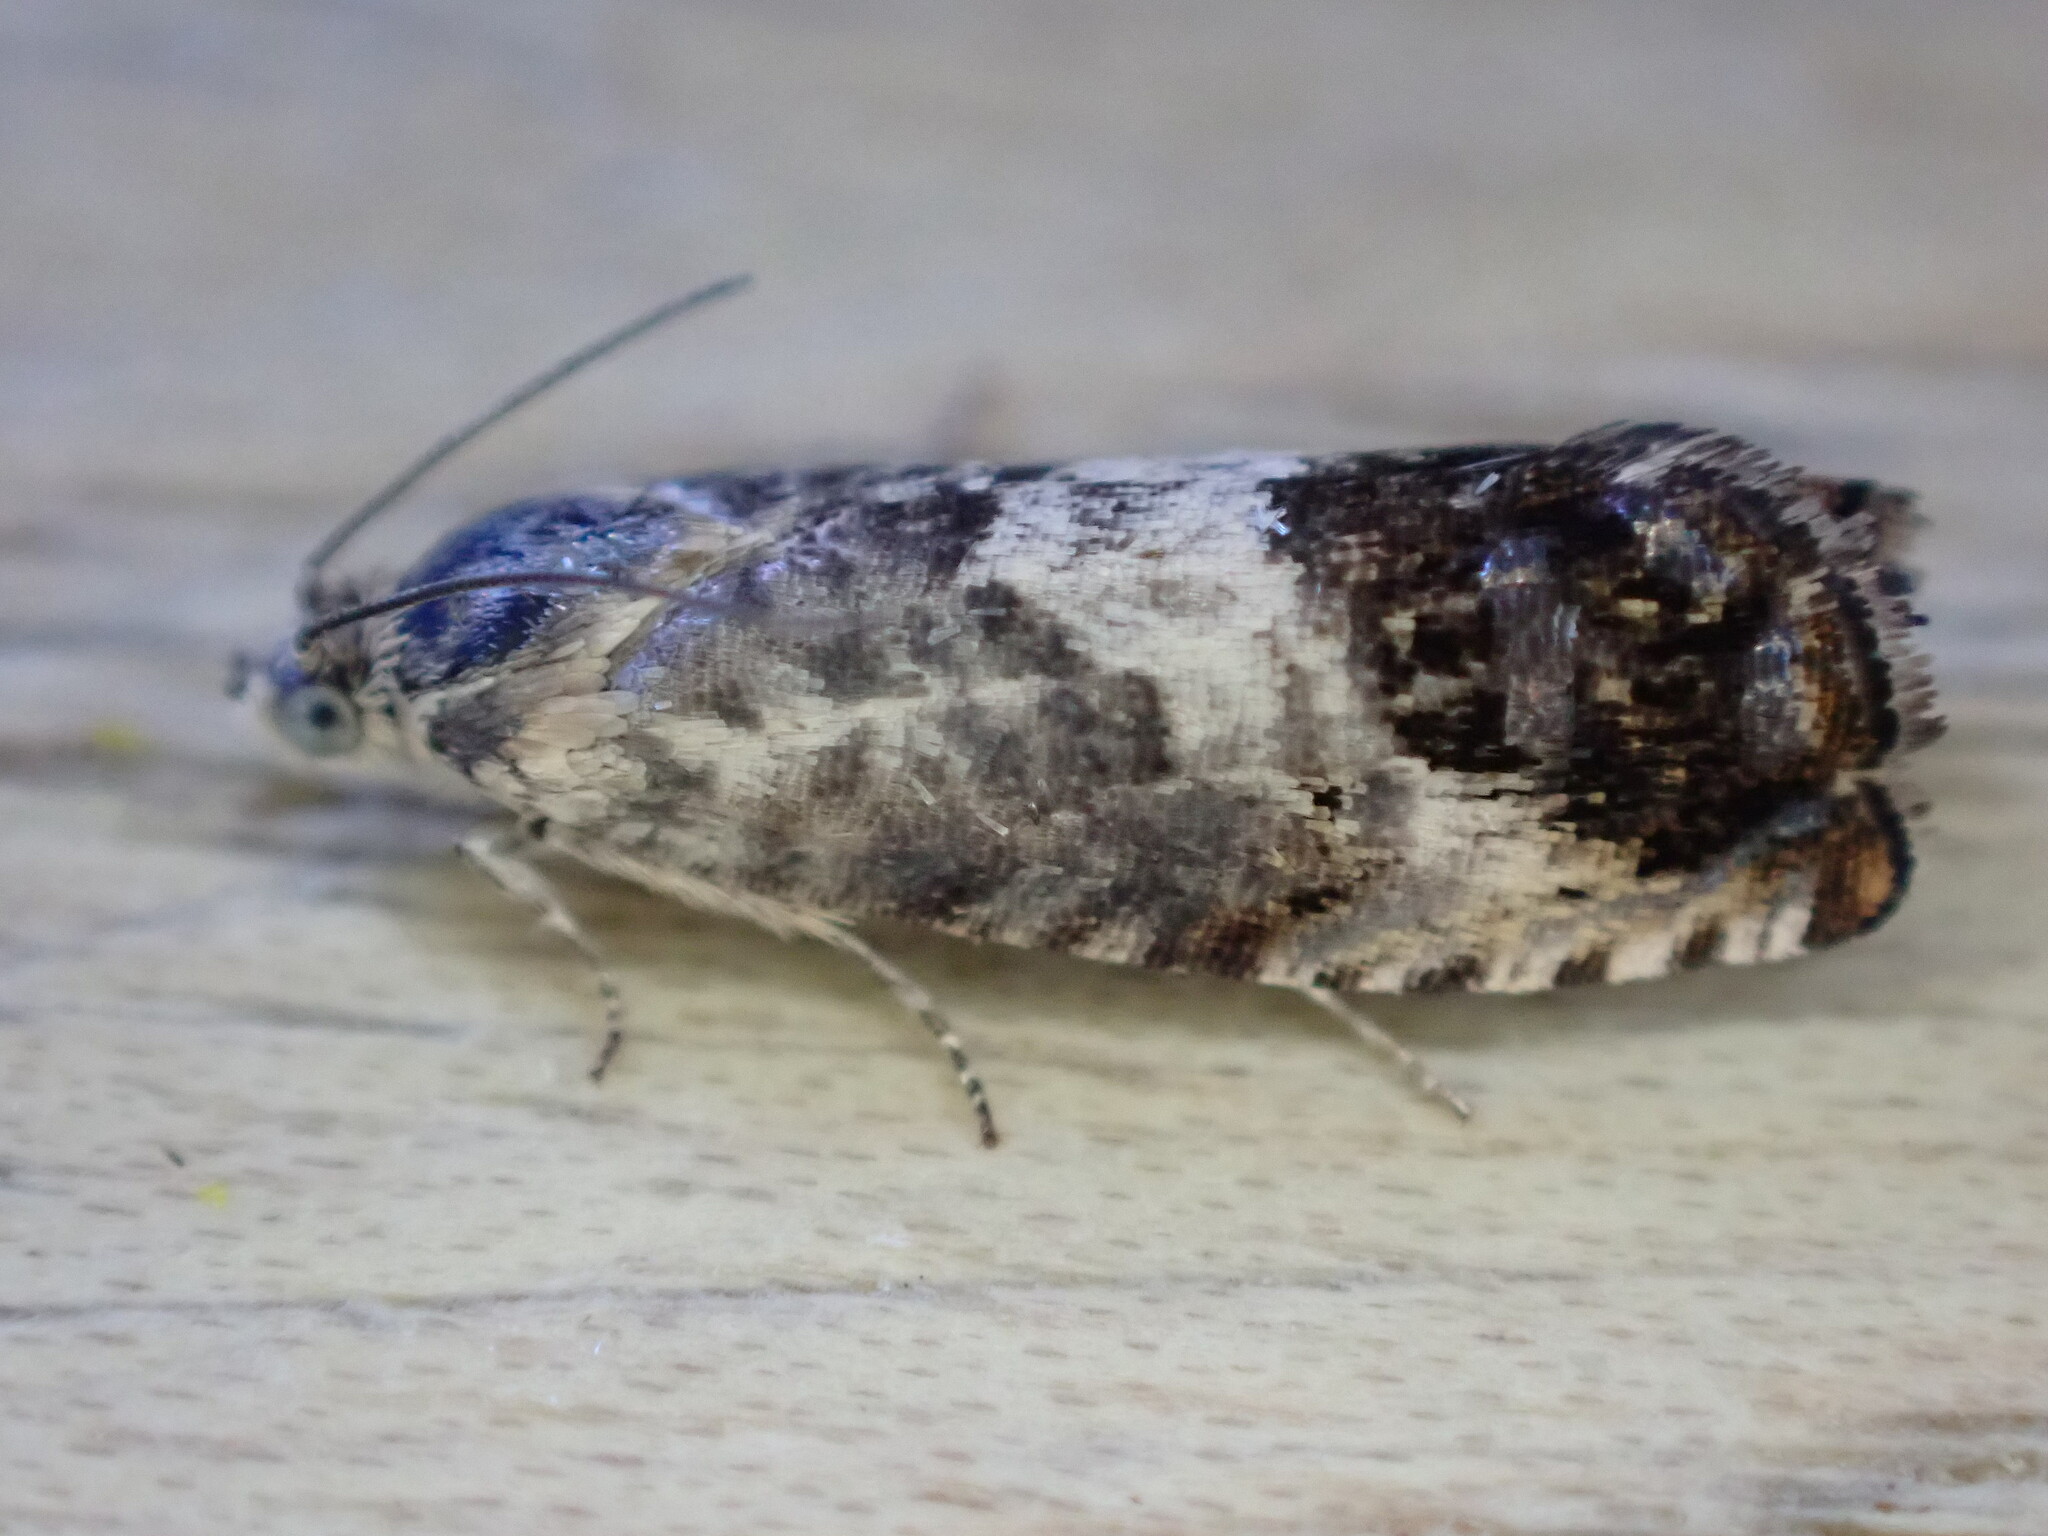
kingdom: Animalia
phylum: Arthropoda
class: Insecta
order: Lepidoptera
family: Tortricidae
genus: Pammene
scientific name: Pammene fasciana
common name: Acorn piercer
